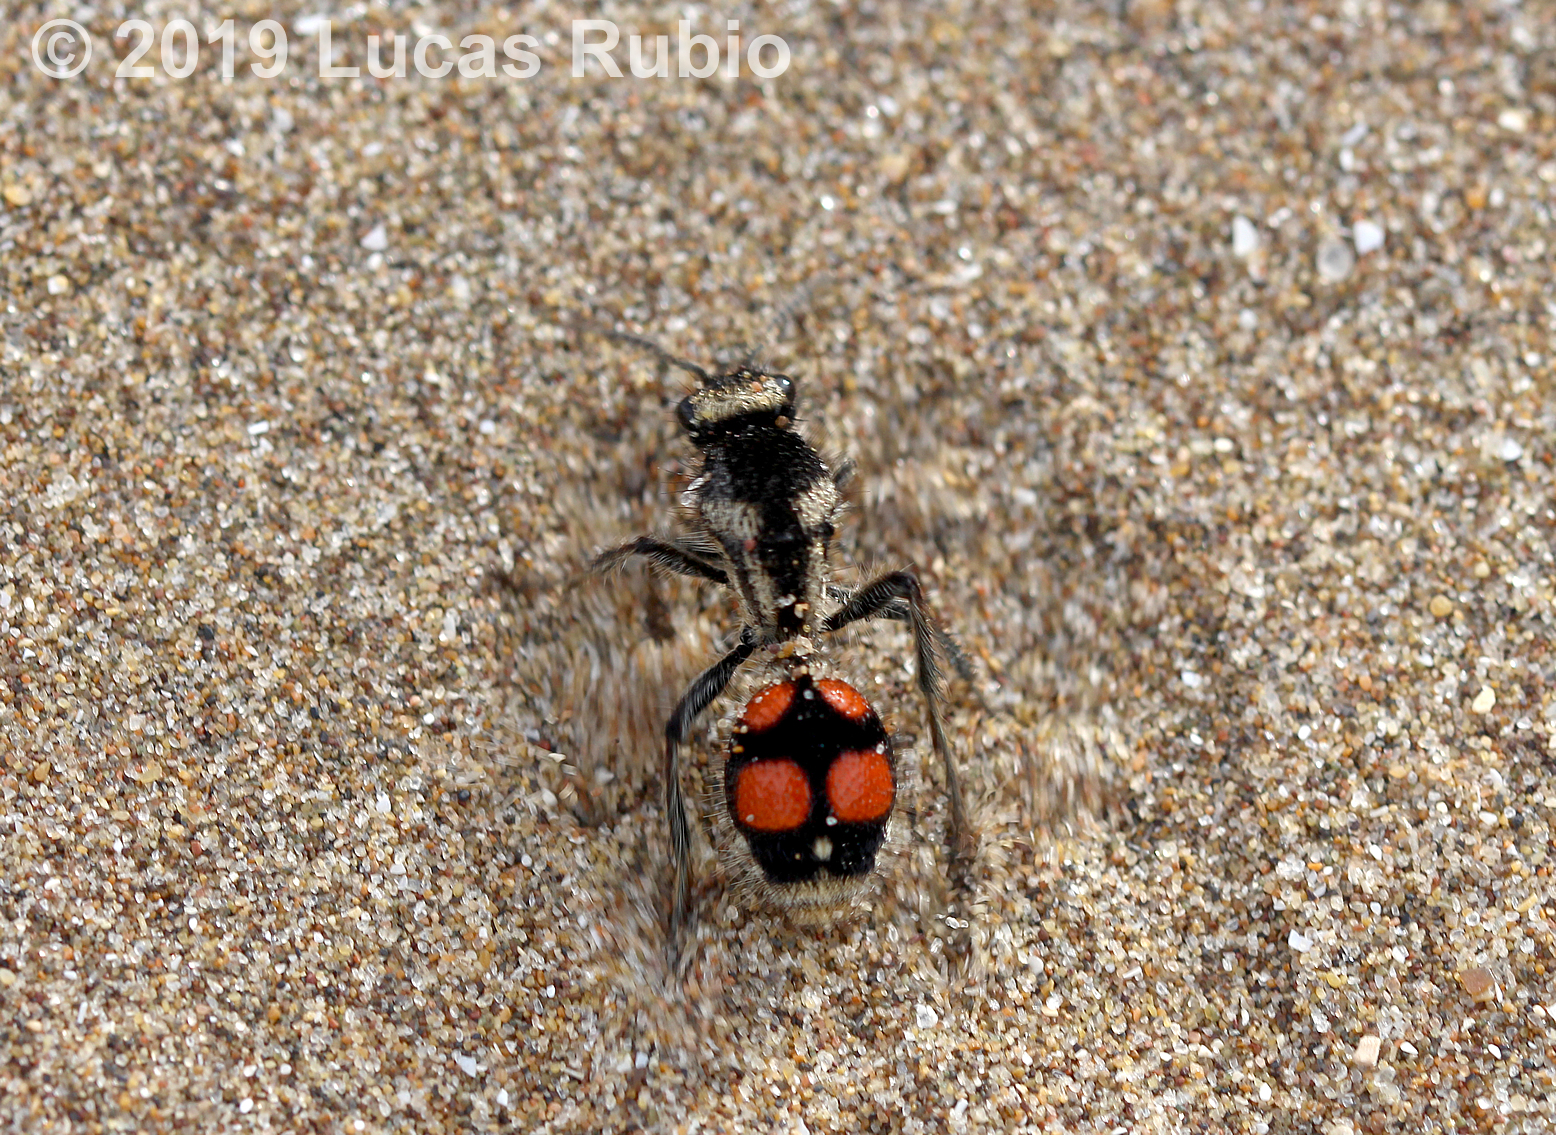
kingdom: Animalia
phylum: Arthropoda
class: Insecta
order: Hymenoptera
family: Mutillidae
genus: Traumatomutilla
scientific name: Traumatomutilla
